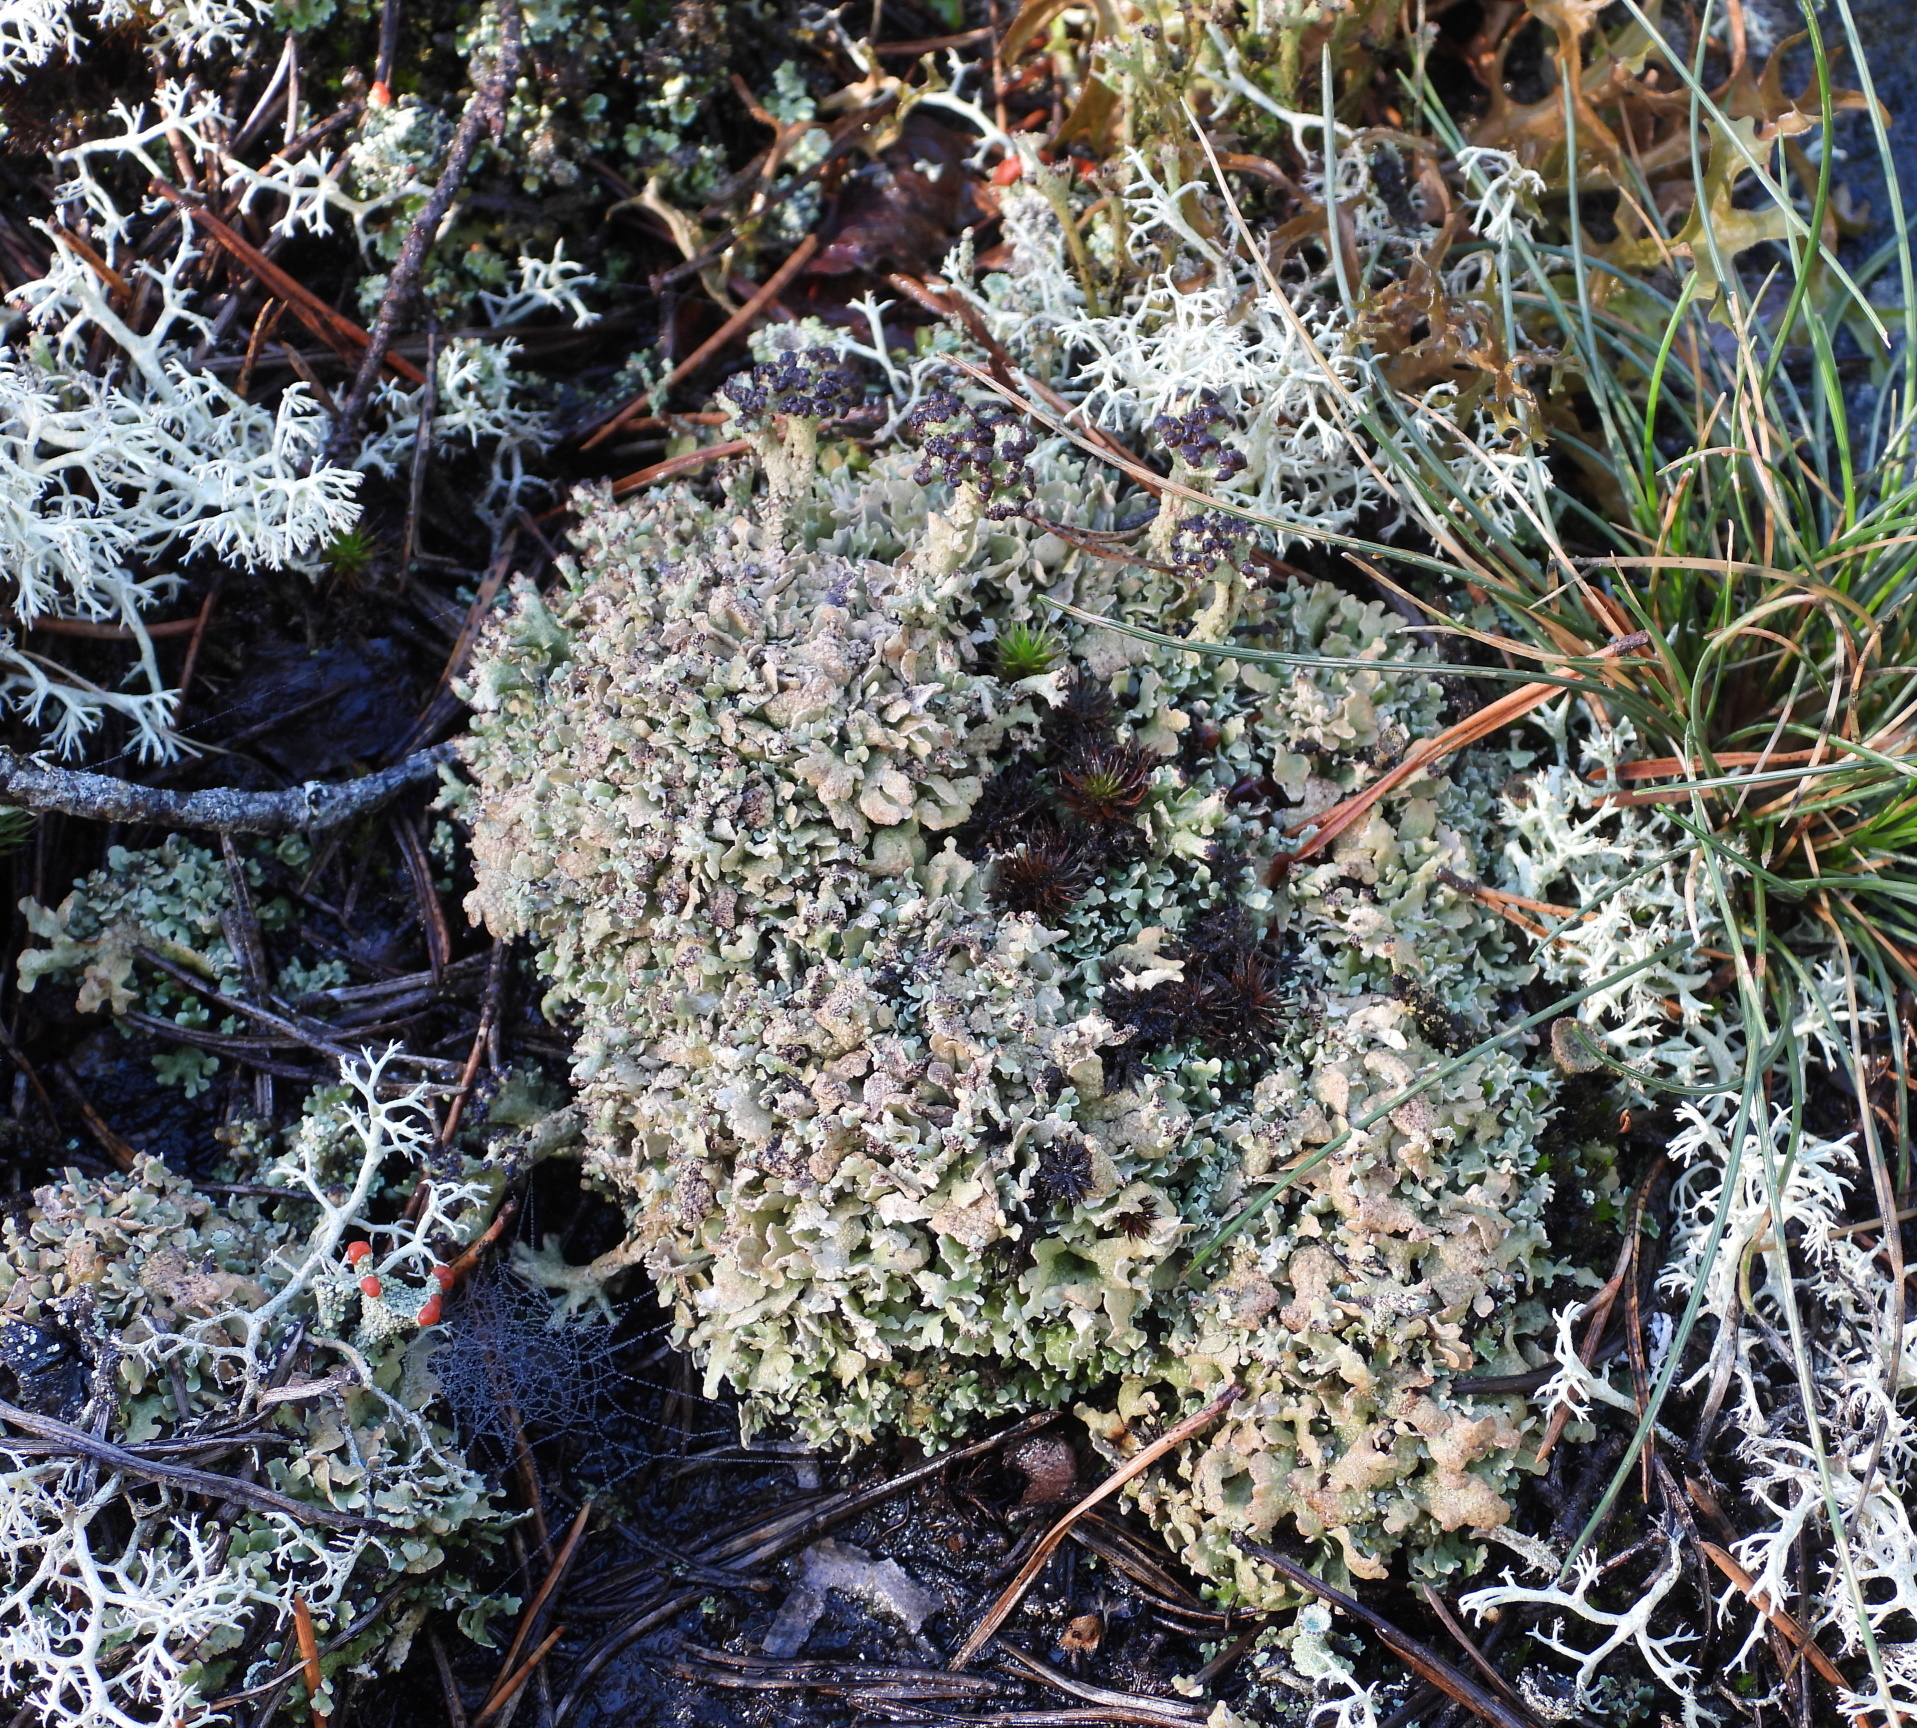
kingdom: Fungi
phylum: Ascomycota
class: Lecanoromycetes
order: Lecanorales
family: Cladoniaceae
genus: Cladonia
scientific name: Cladonia strepsilis
